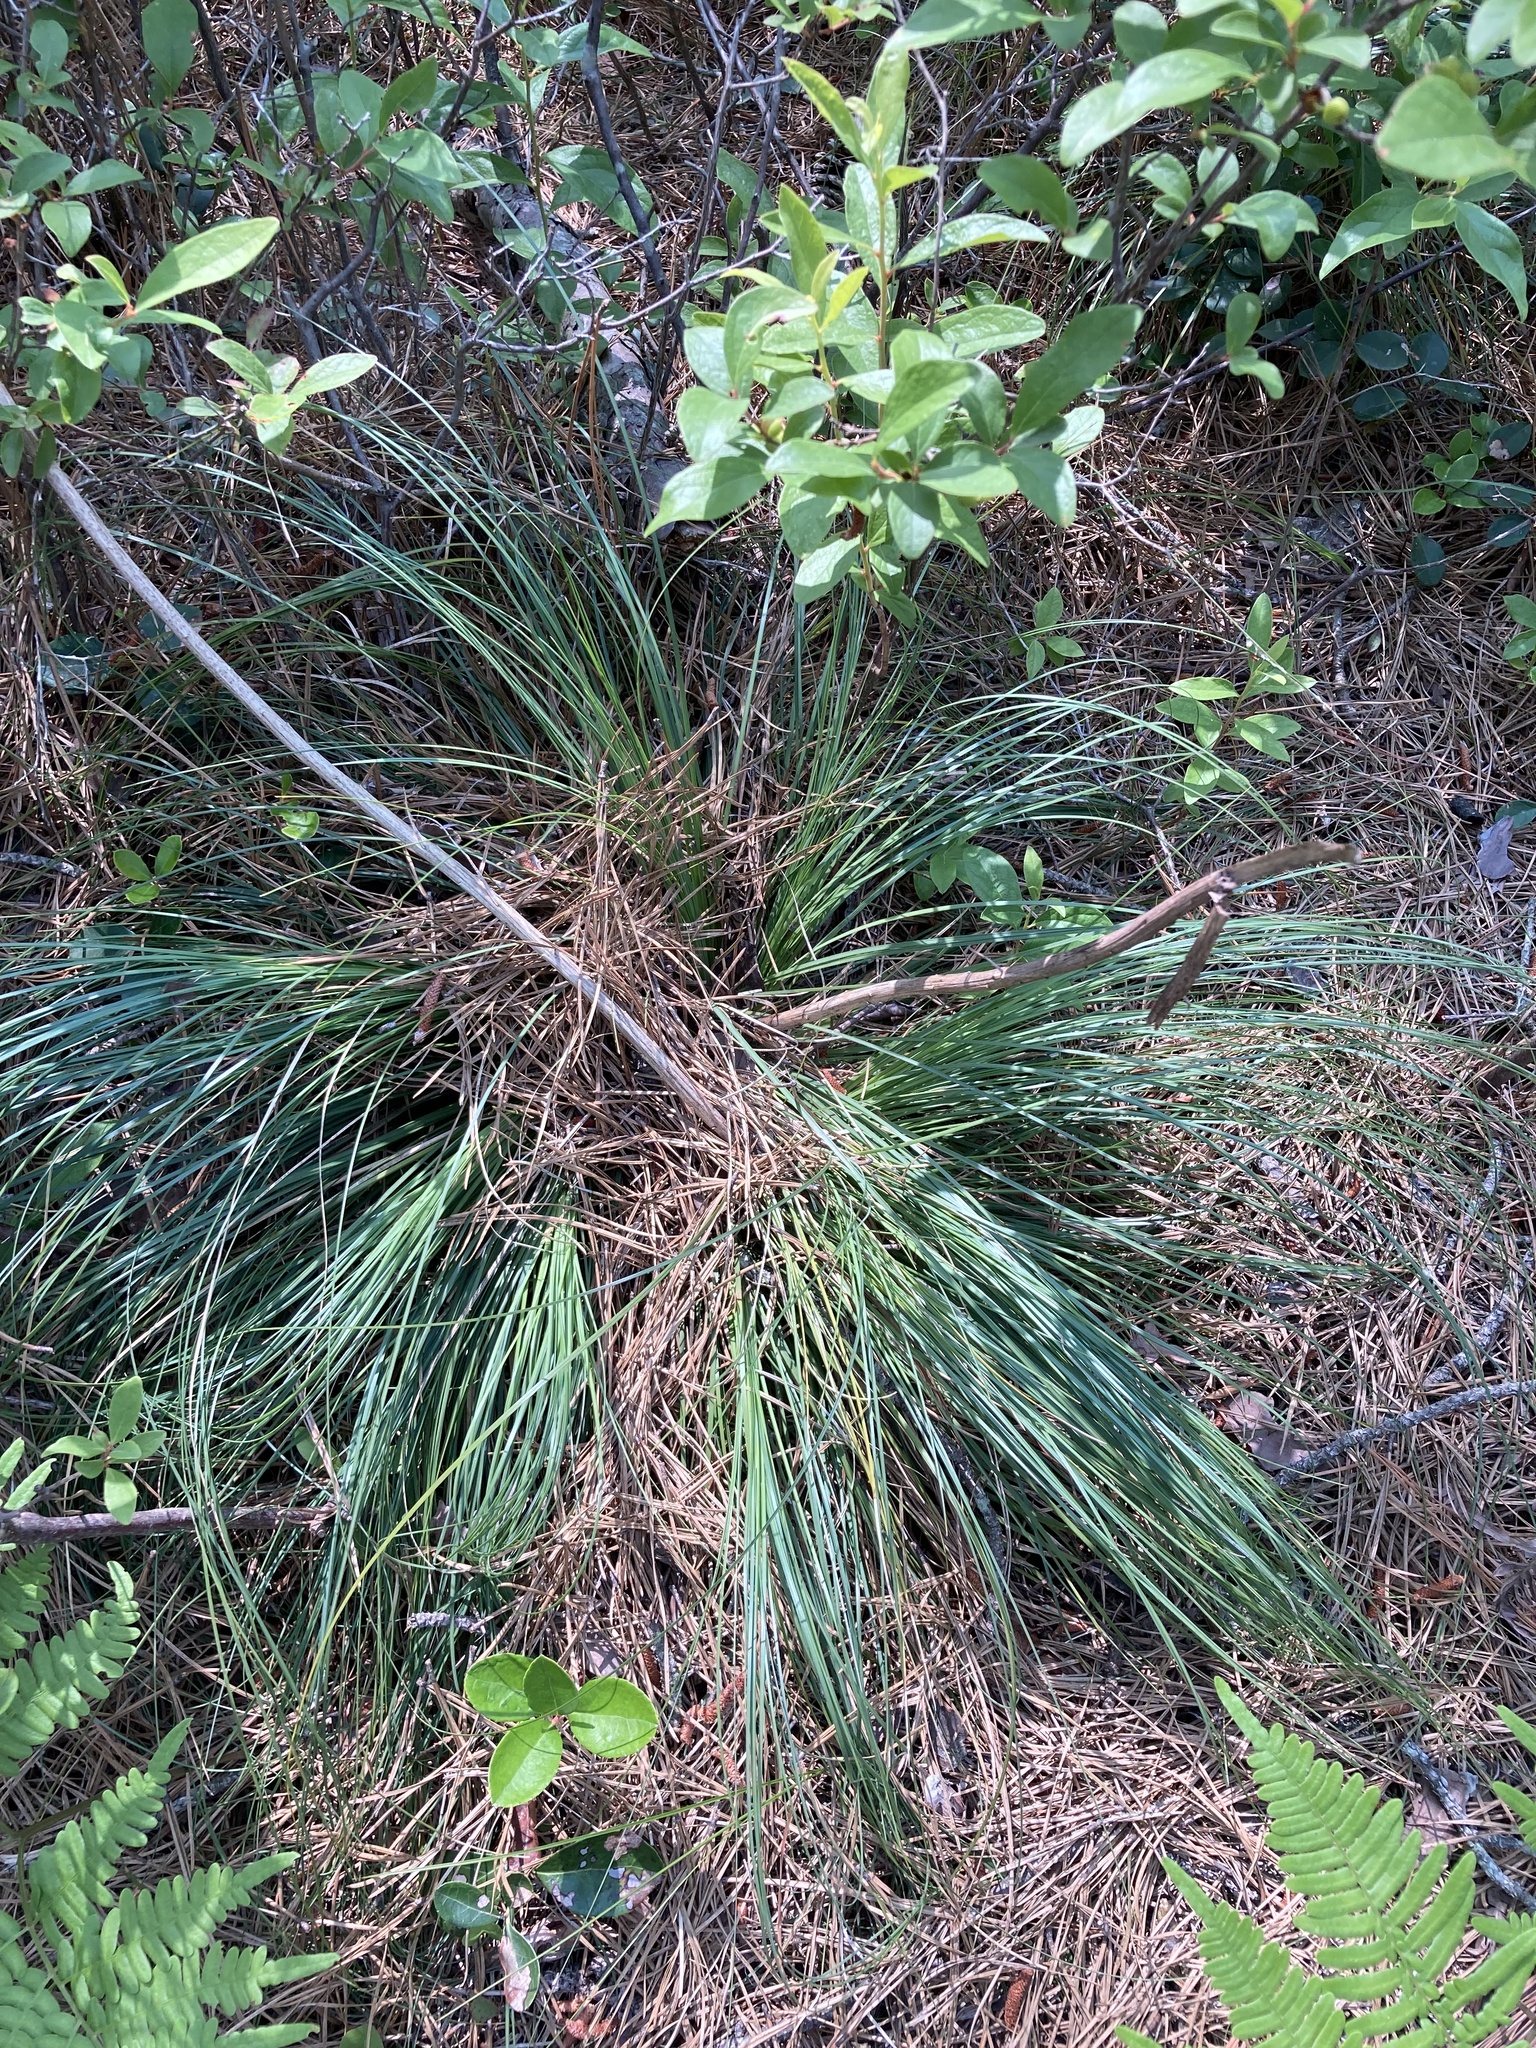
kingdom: Plantae
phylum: Tracheophyta
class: Liliopsida
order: Liliales
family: Melanthiaceae
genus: Xerophyllum
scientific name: Xerophyllum asphodeloides
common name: Mountain-asphodel
